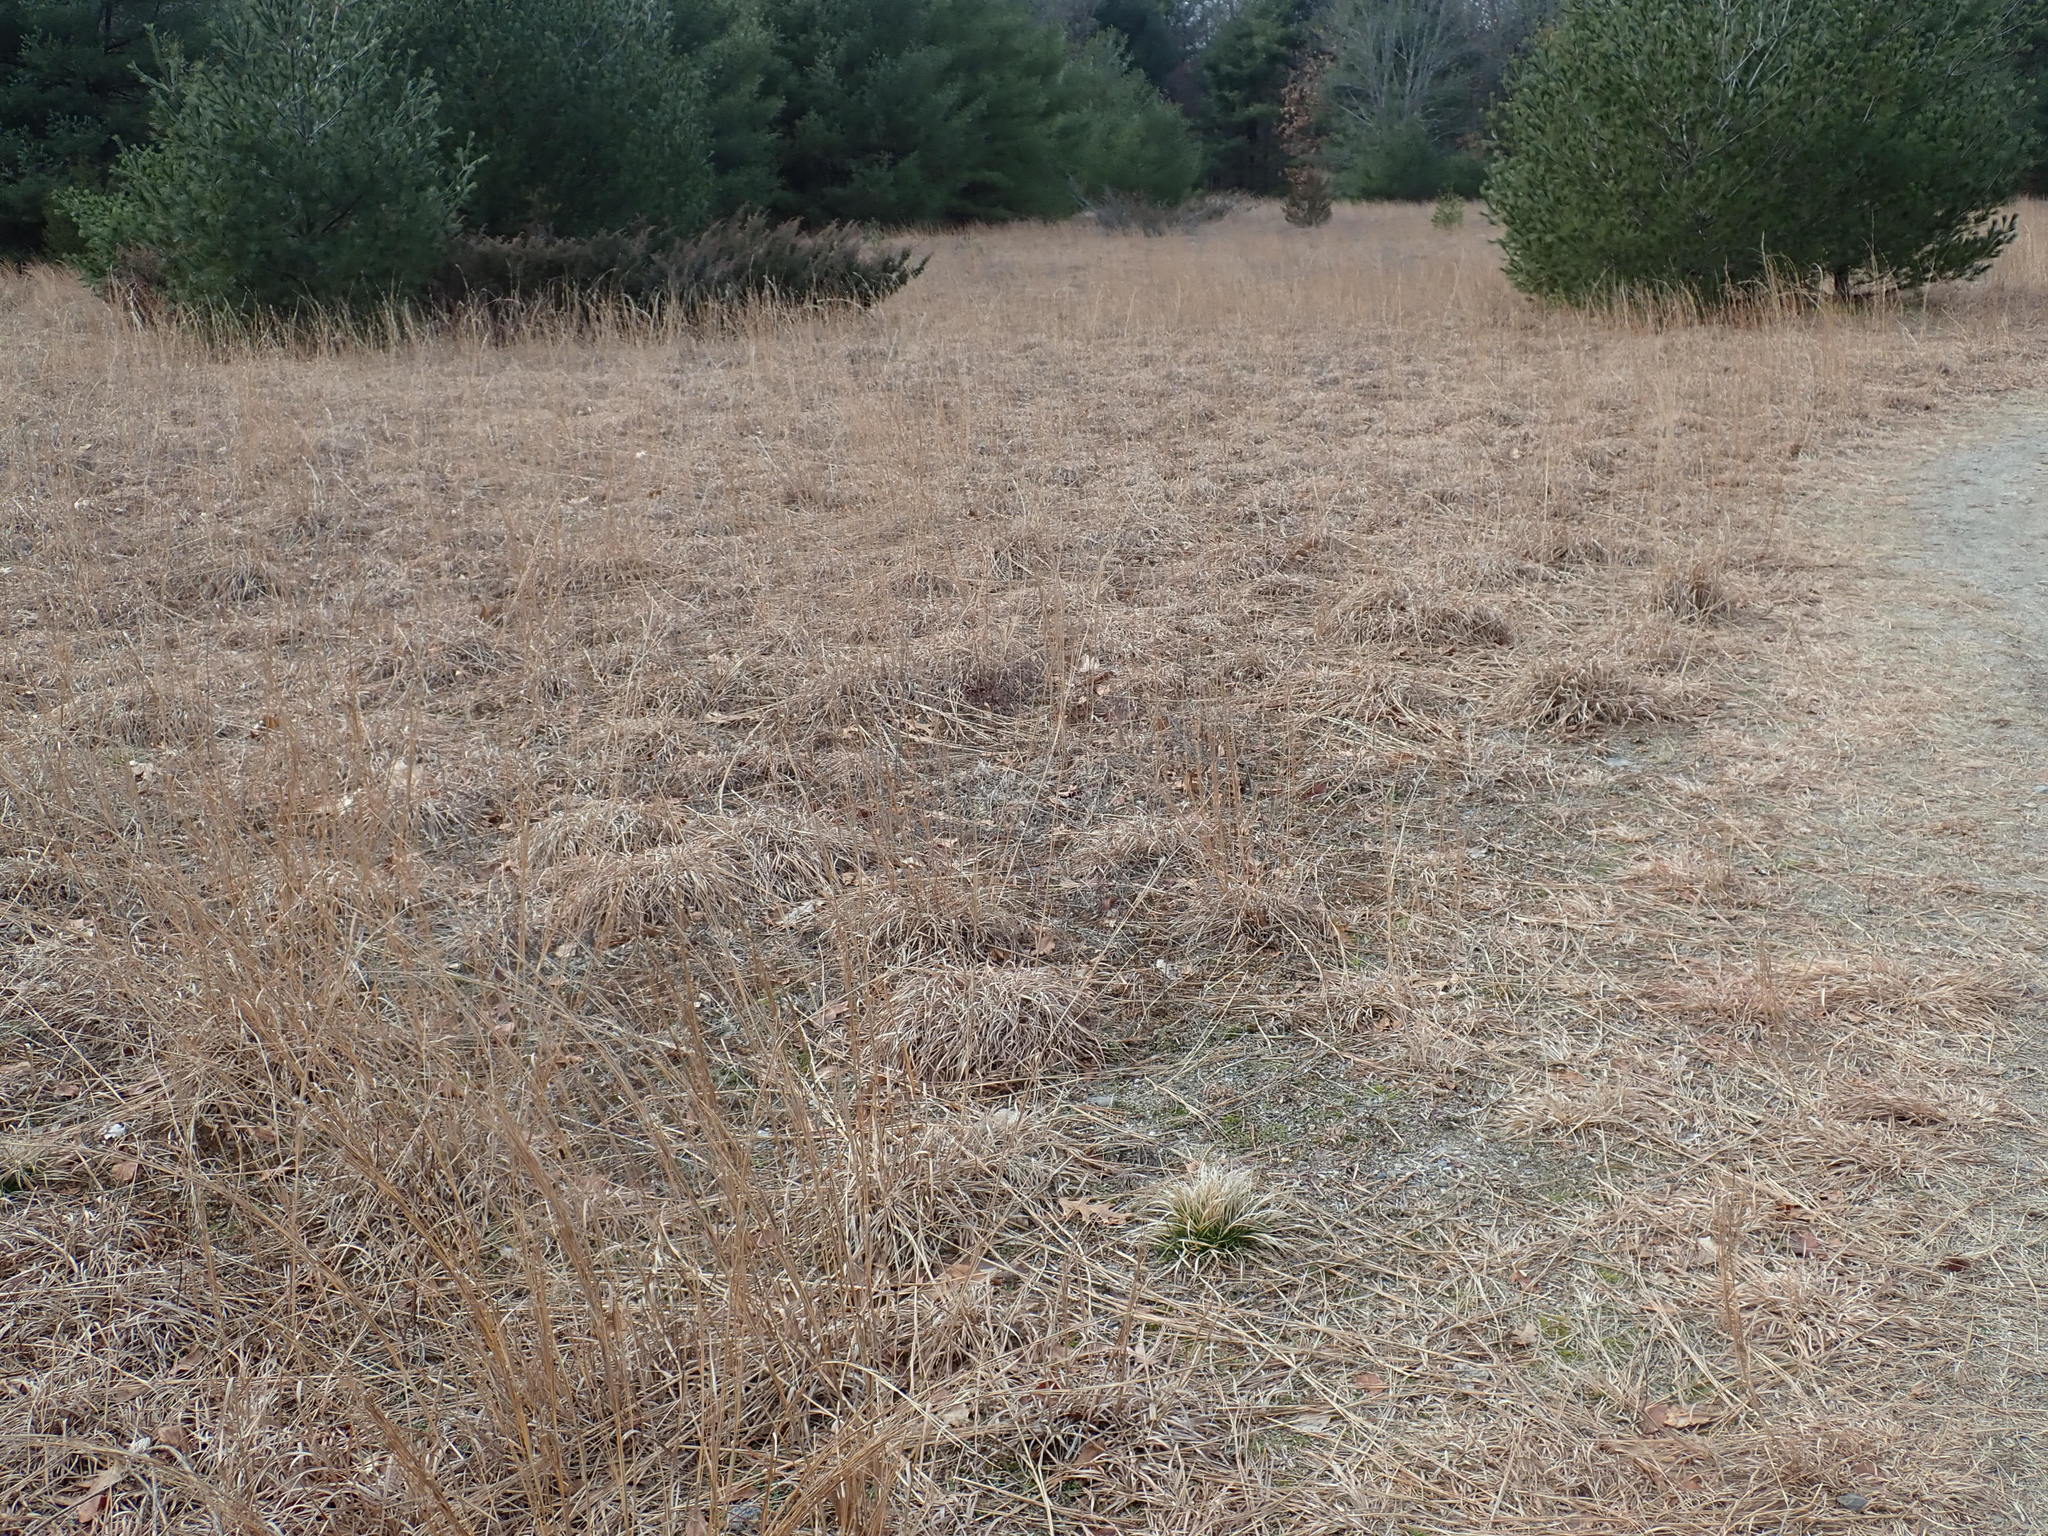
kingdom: Plantae
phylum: Tracheophyta
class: Liliopsida
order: Poales
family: Poaceae
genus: Schizachyrium
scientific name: Schizachyrium scoparium
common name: Little bluestem
